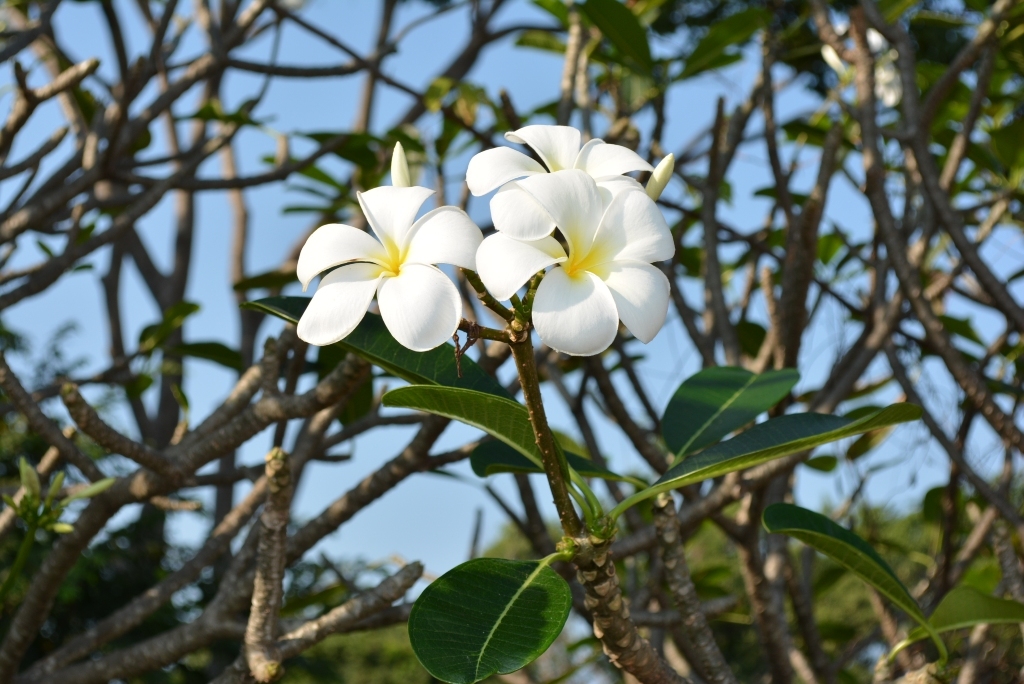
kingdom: Plantae
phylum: Tracheophyta
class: Magnoliopsida
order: Gentianales
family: Apocynaceae
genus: Plumeria
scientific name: Plumeria obtusa
